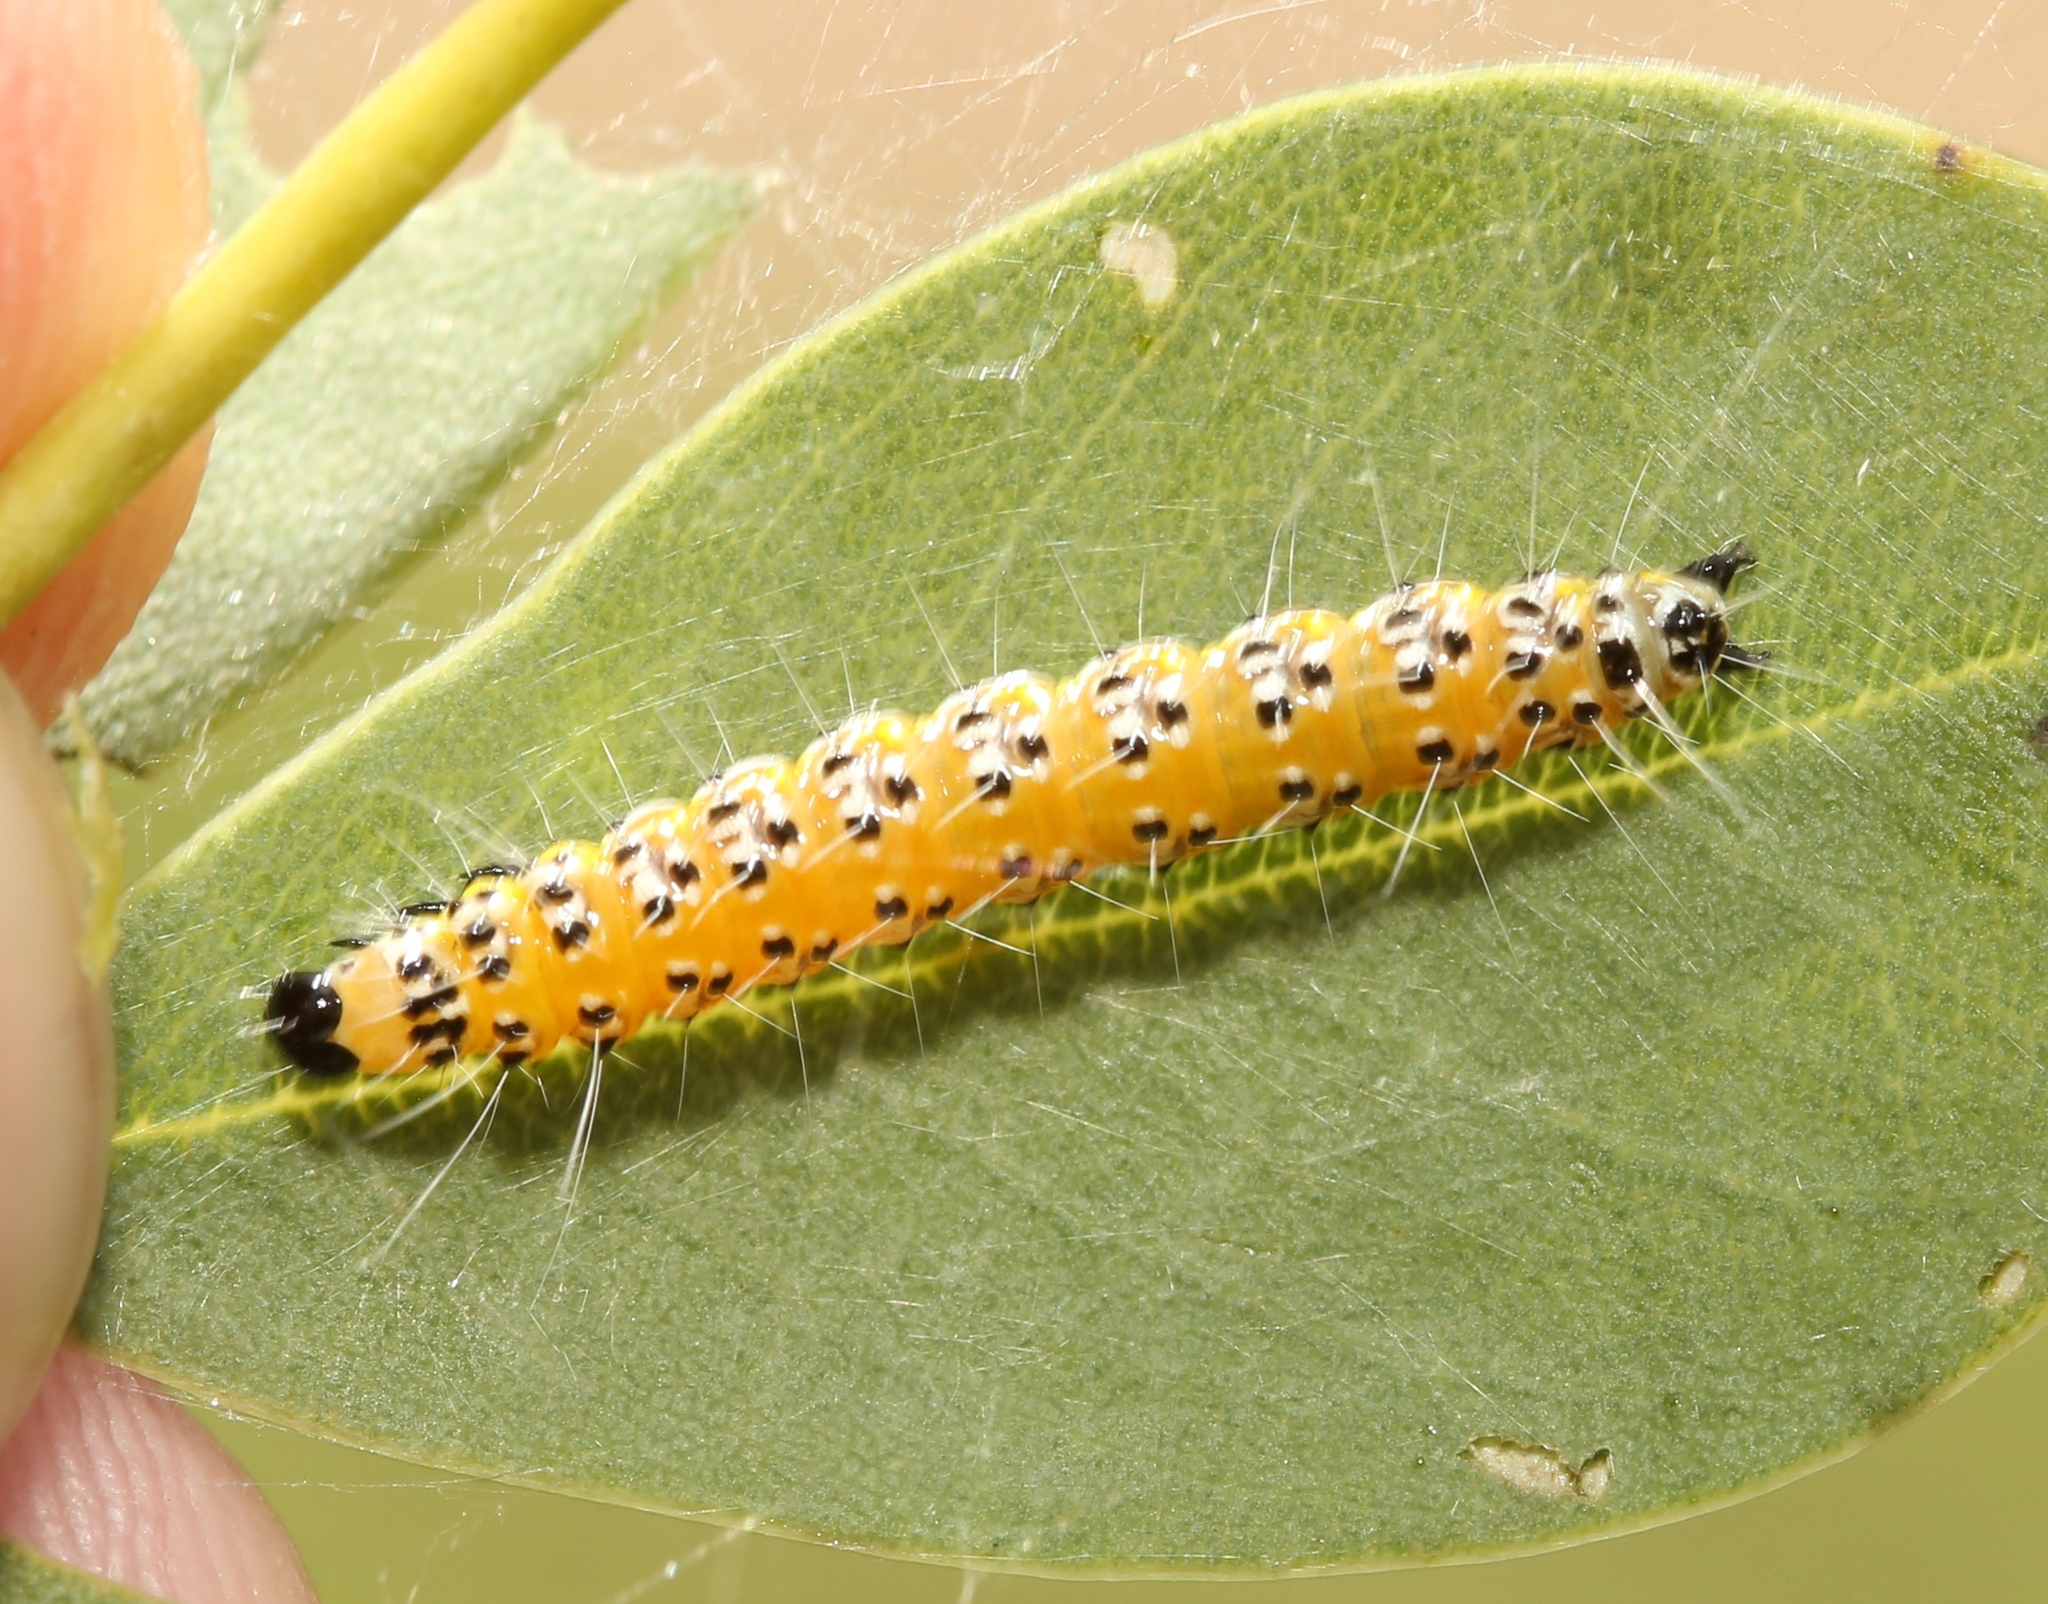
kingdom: Animalia
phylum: Arthropoda
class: Insecta
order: Lepidoptera
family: Crambidae
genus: Uresiphita
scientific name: Uresiphita reversalis
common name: Genista broom moth
